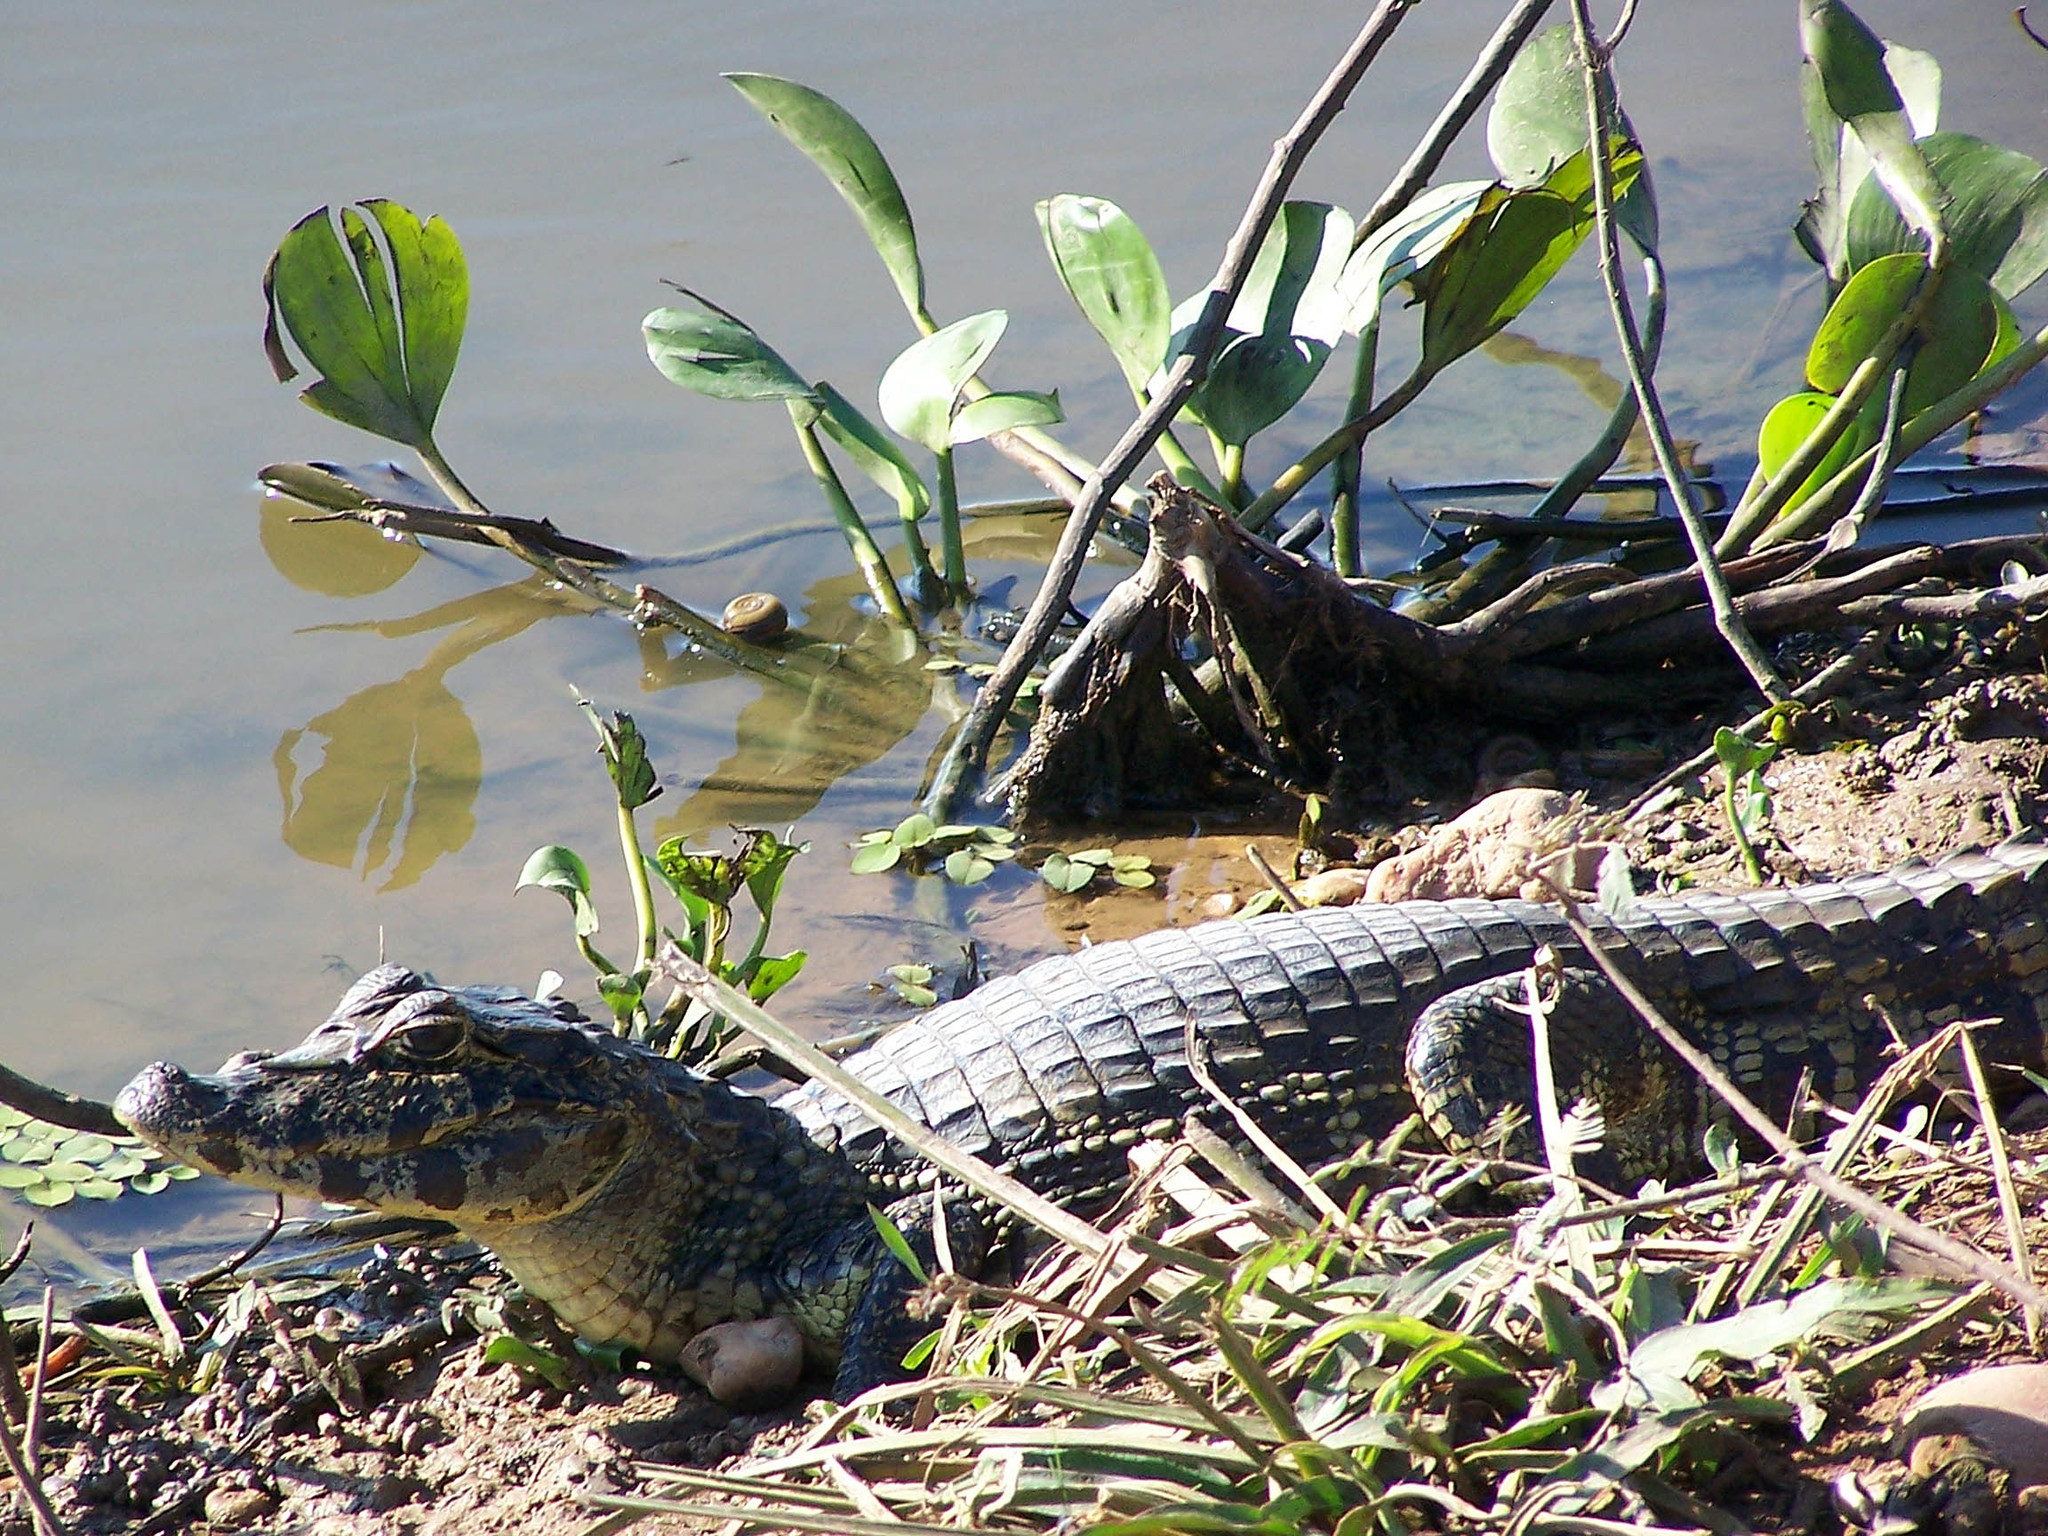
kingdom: Animalia
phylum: Chordata
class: Crocodylia
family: Alligatoridae
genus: Caiman
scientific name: Caiman yacare
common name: Yacare caiman
